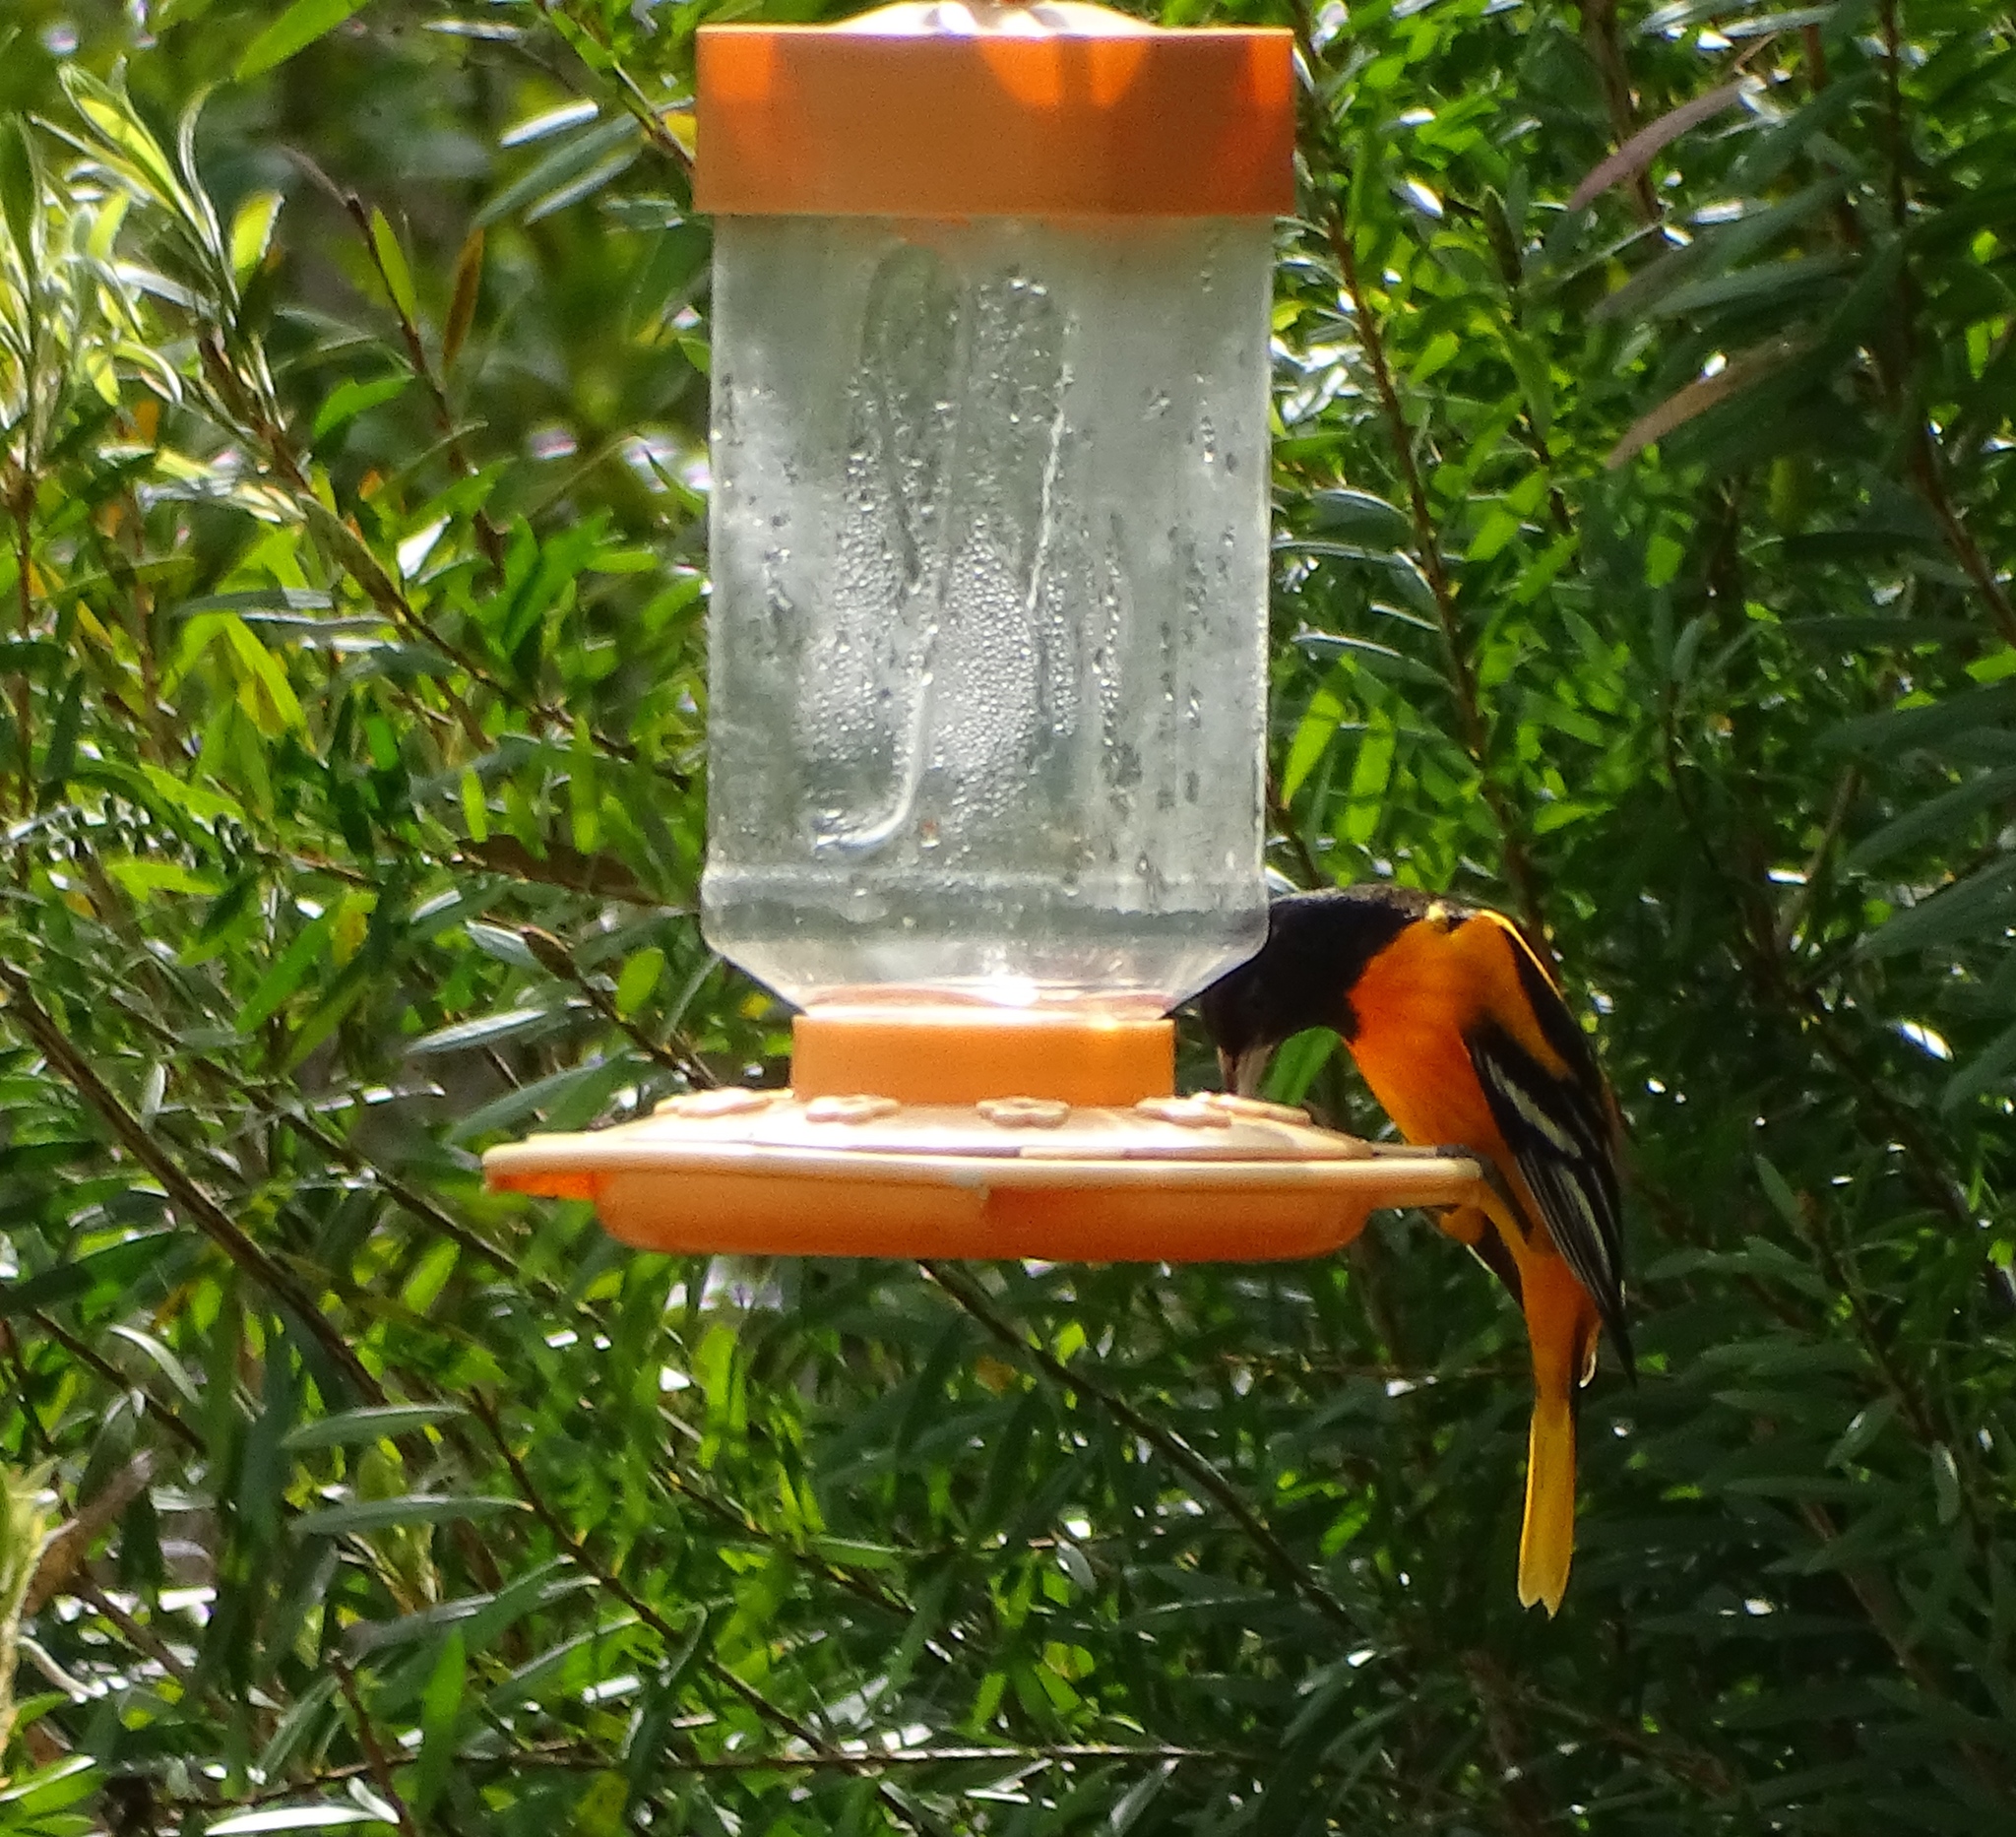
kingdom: Animalia
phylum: Chordata
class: Aves
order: Passeriformes
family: Icteridae
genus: Icterus
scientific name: Icterus galbula
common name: Baltimore oriole
